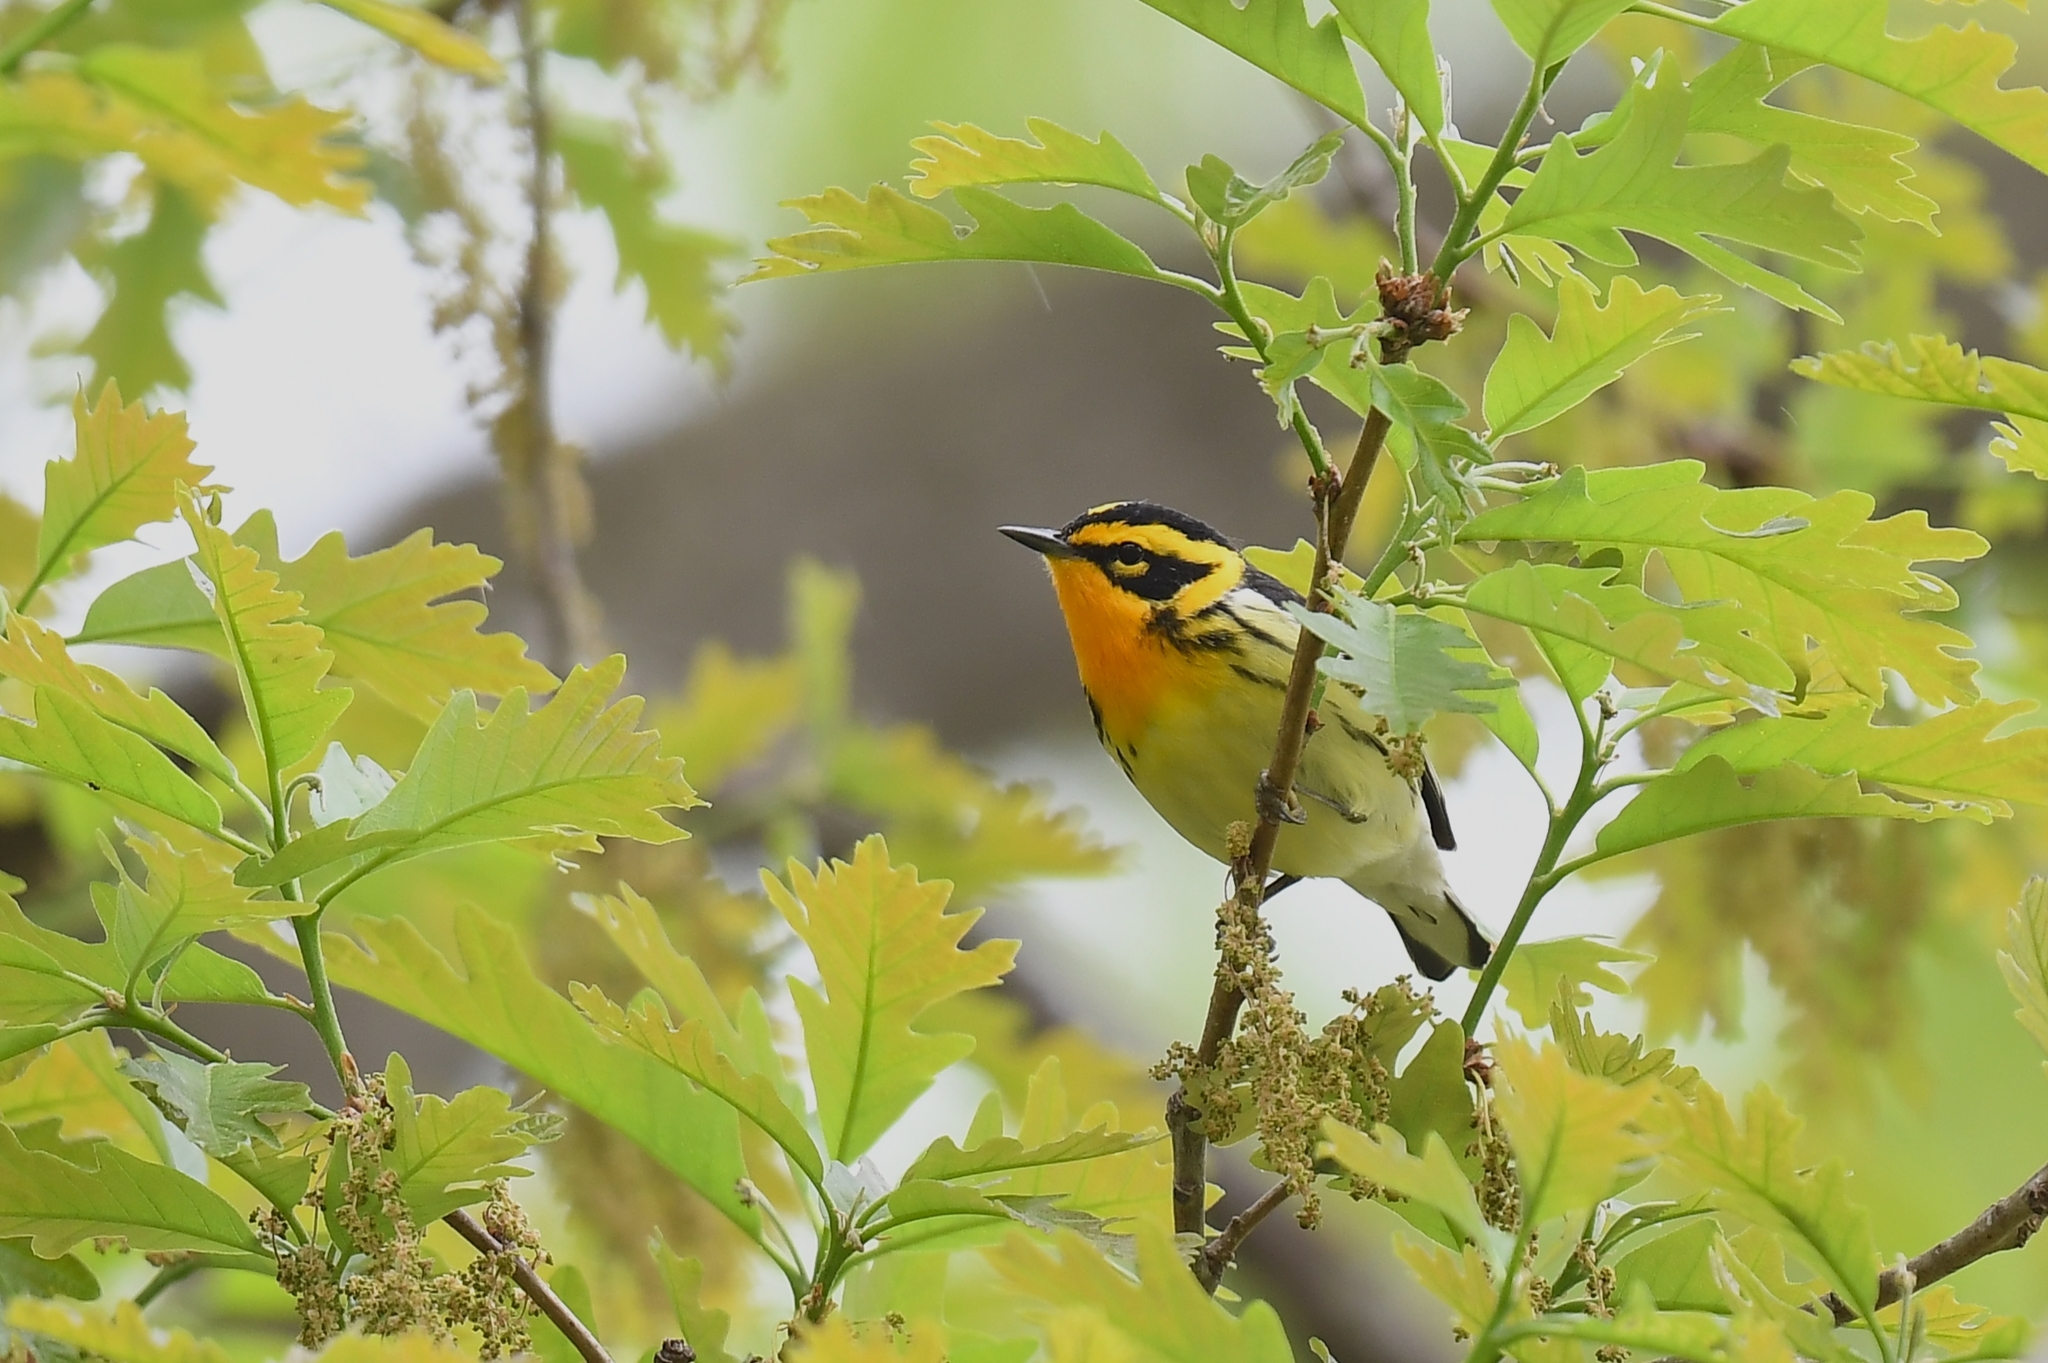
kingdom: Animalia
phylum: Chordata
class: Aves
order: Passeriformes
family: Parulidae
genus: Setophaga
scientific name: Setophaga fusca
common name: Blackburnian warbler
